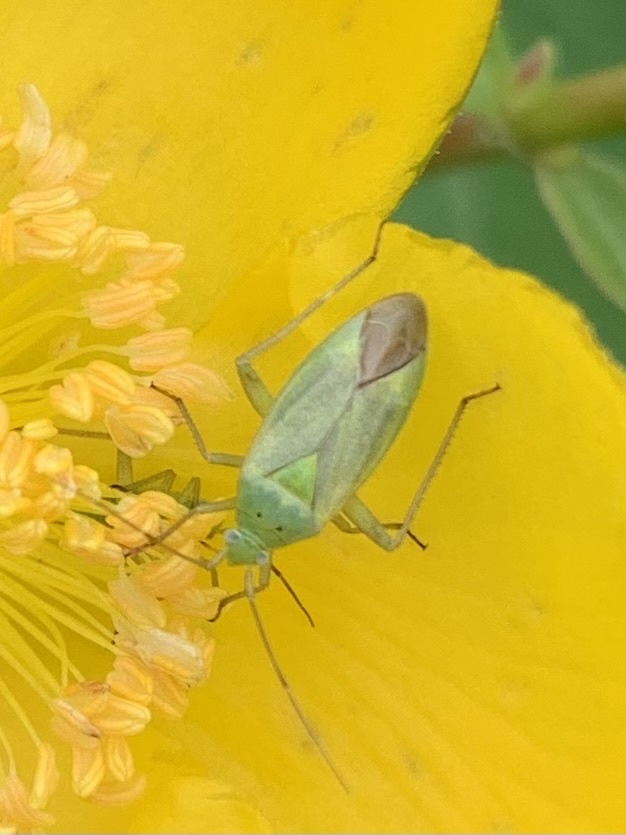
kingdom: Animalia
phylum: Arthropoda
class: Insecta
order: Hemiptera
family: Miridae
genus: Closterotomus
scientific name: Closterotomus norvegicus
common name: Plant bug
